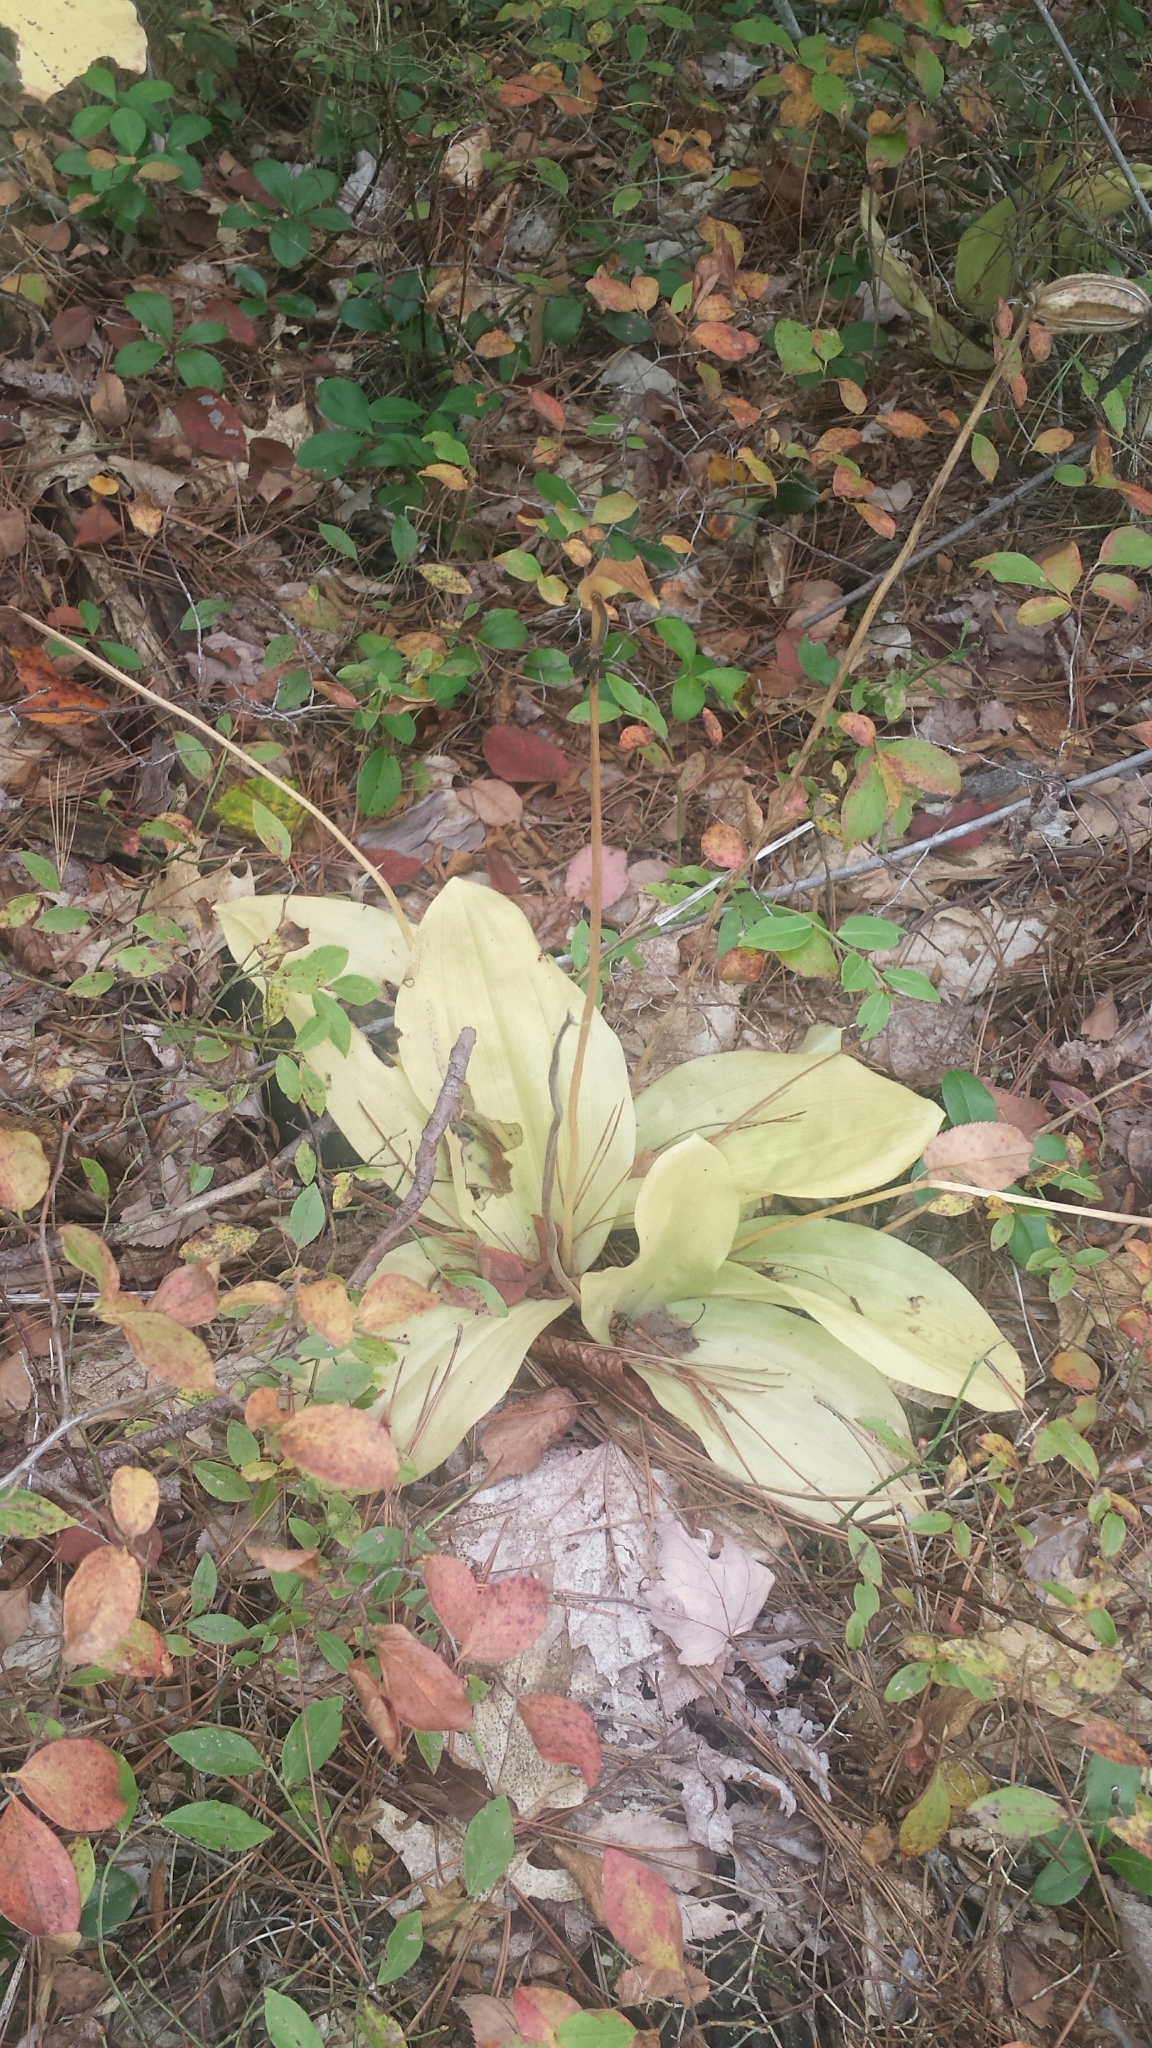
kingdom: Plantae
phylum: Tracheophyta
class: Liliopsida
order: Asparagales
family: Orchidaceae
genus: Cypripedium
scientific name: Cypripedium acaule
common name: Pink lady's-slipper
